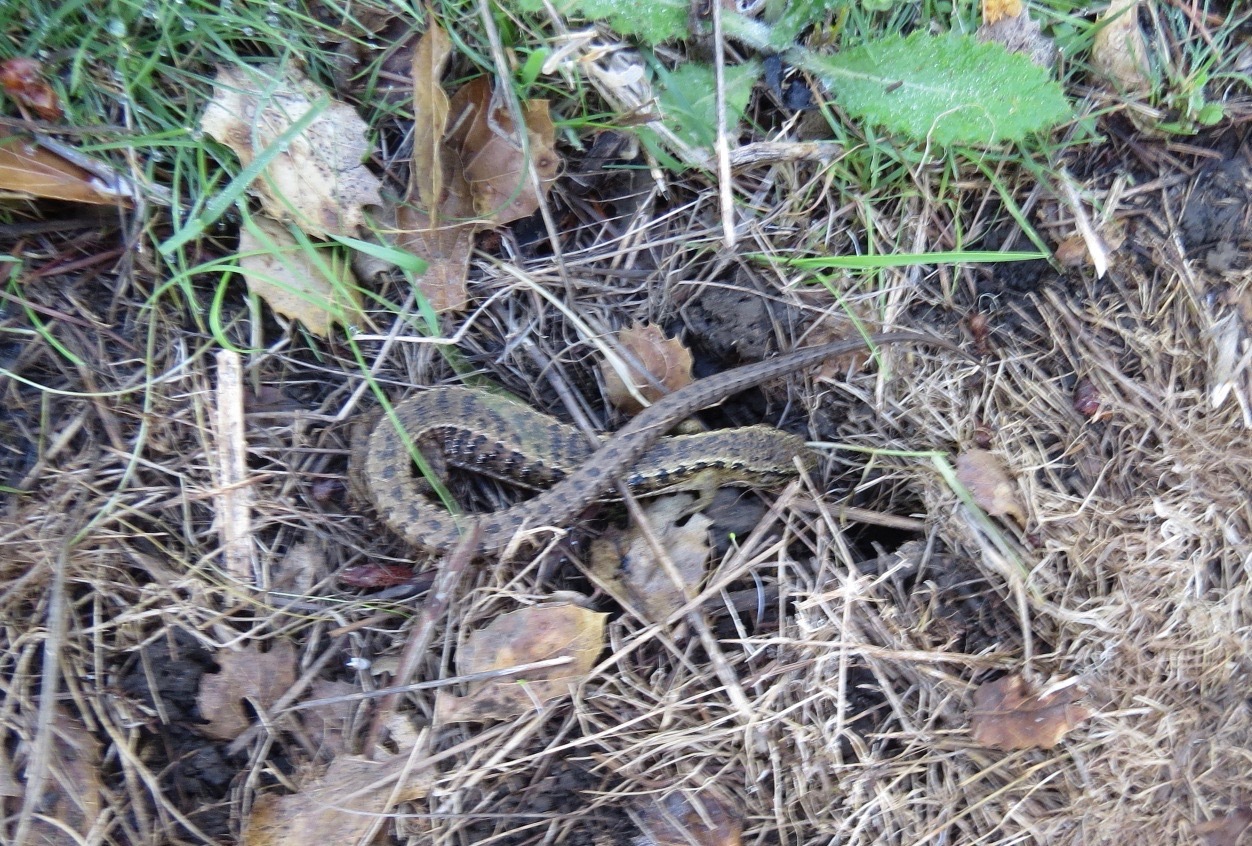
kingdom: Animalia
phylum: Chordata
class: Squamata
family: Anguidae
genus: Elgaria
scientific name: Elgaria coerulea
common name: Northern alligator lizard
